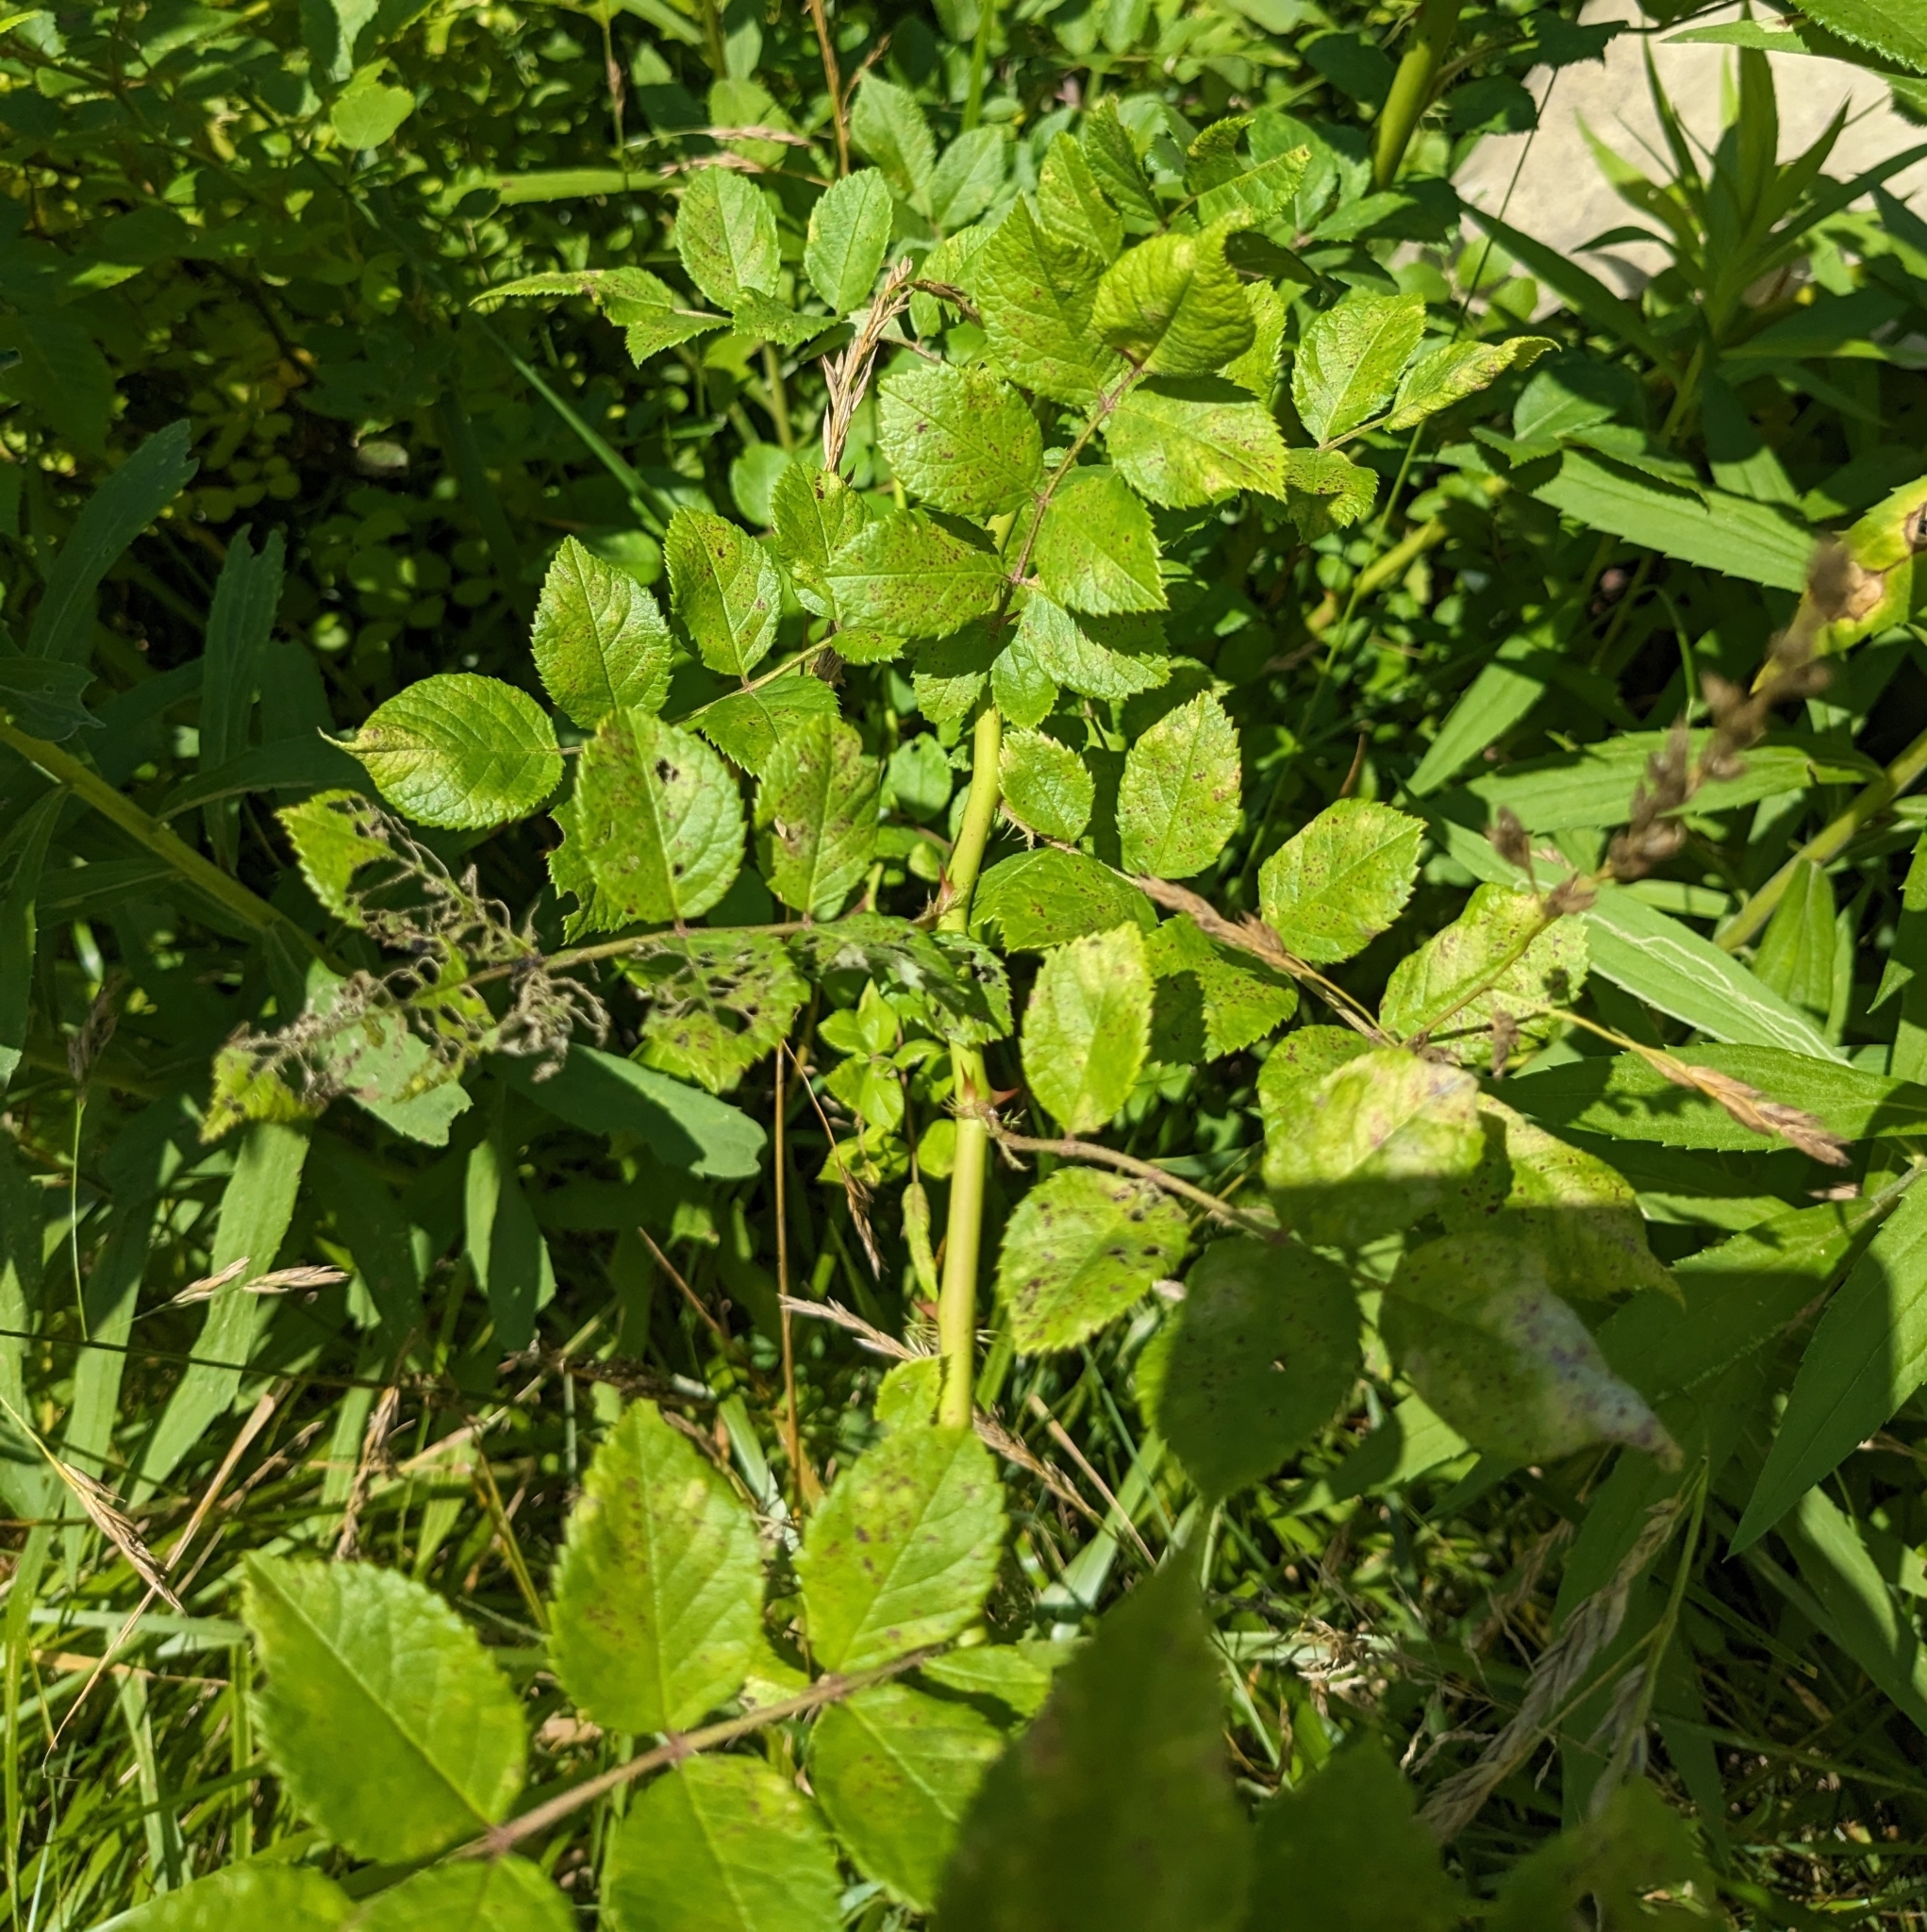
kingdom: Plantae
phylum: Tracheophyta
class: Magnoliopsida
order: Rosales
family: Rosaceae
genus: Rosa
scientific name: Rosa multiflora
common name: Multiflora rose
